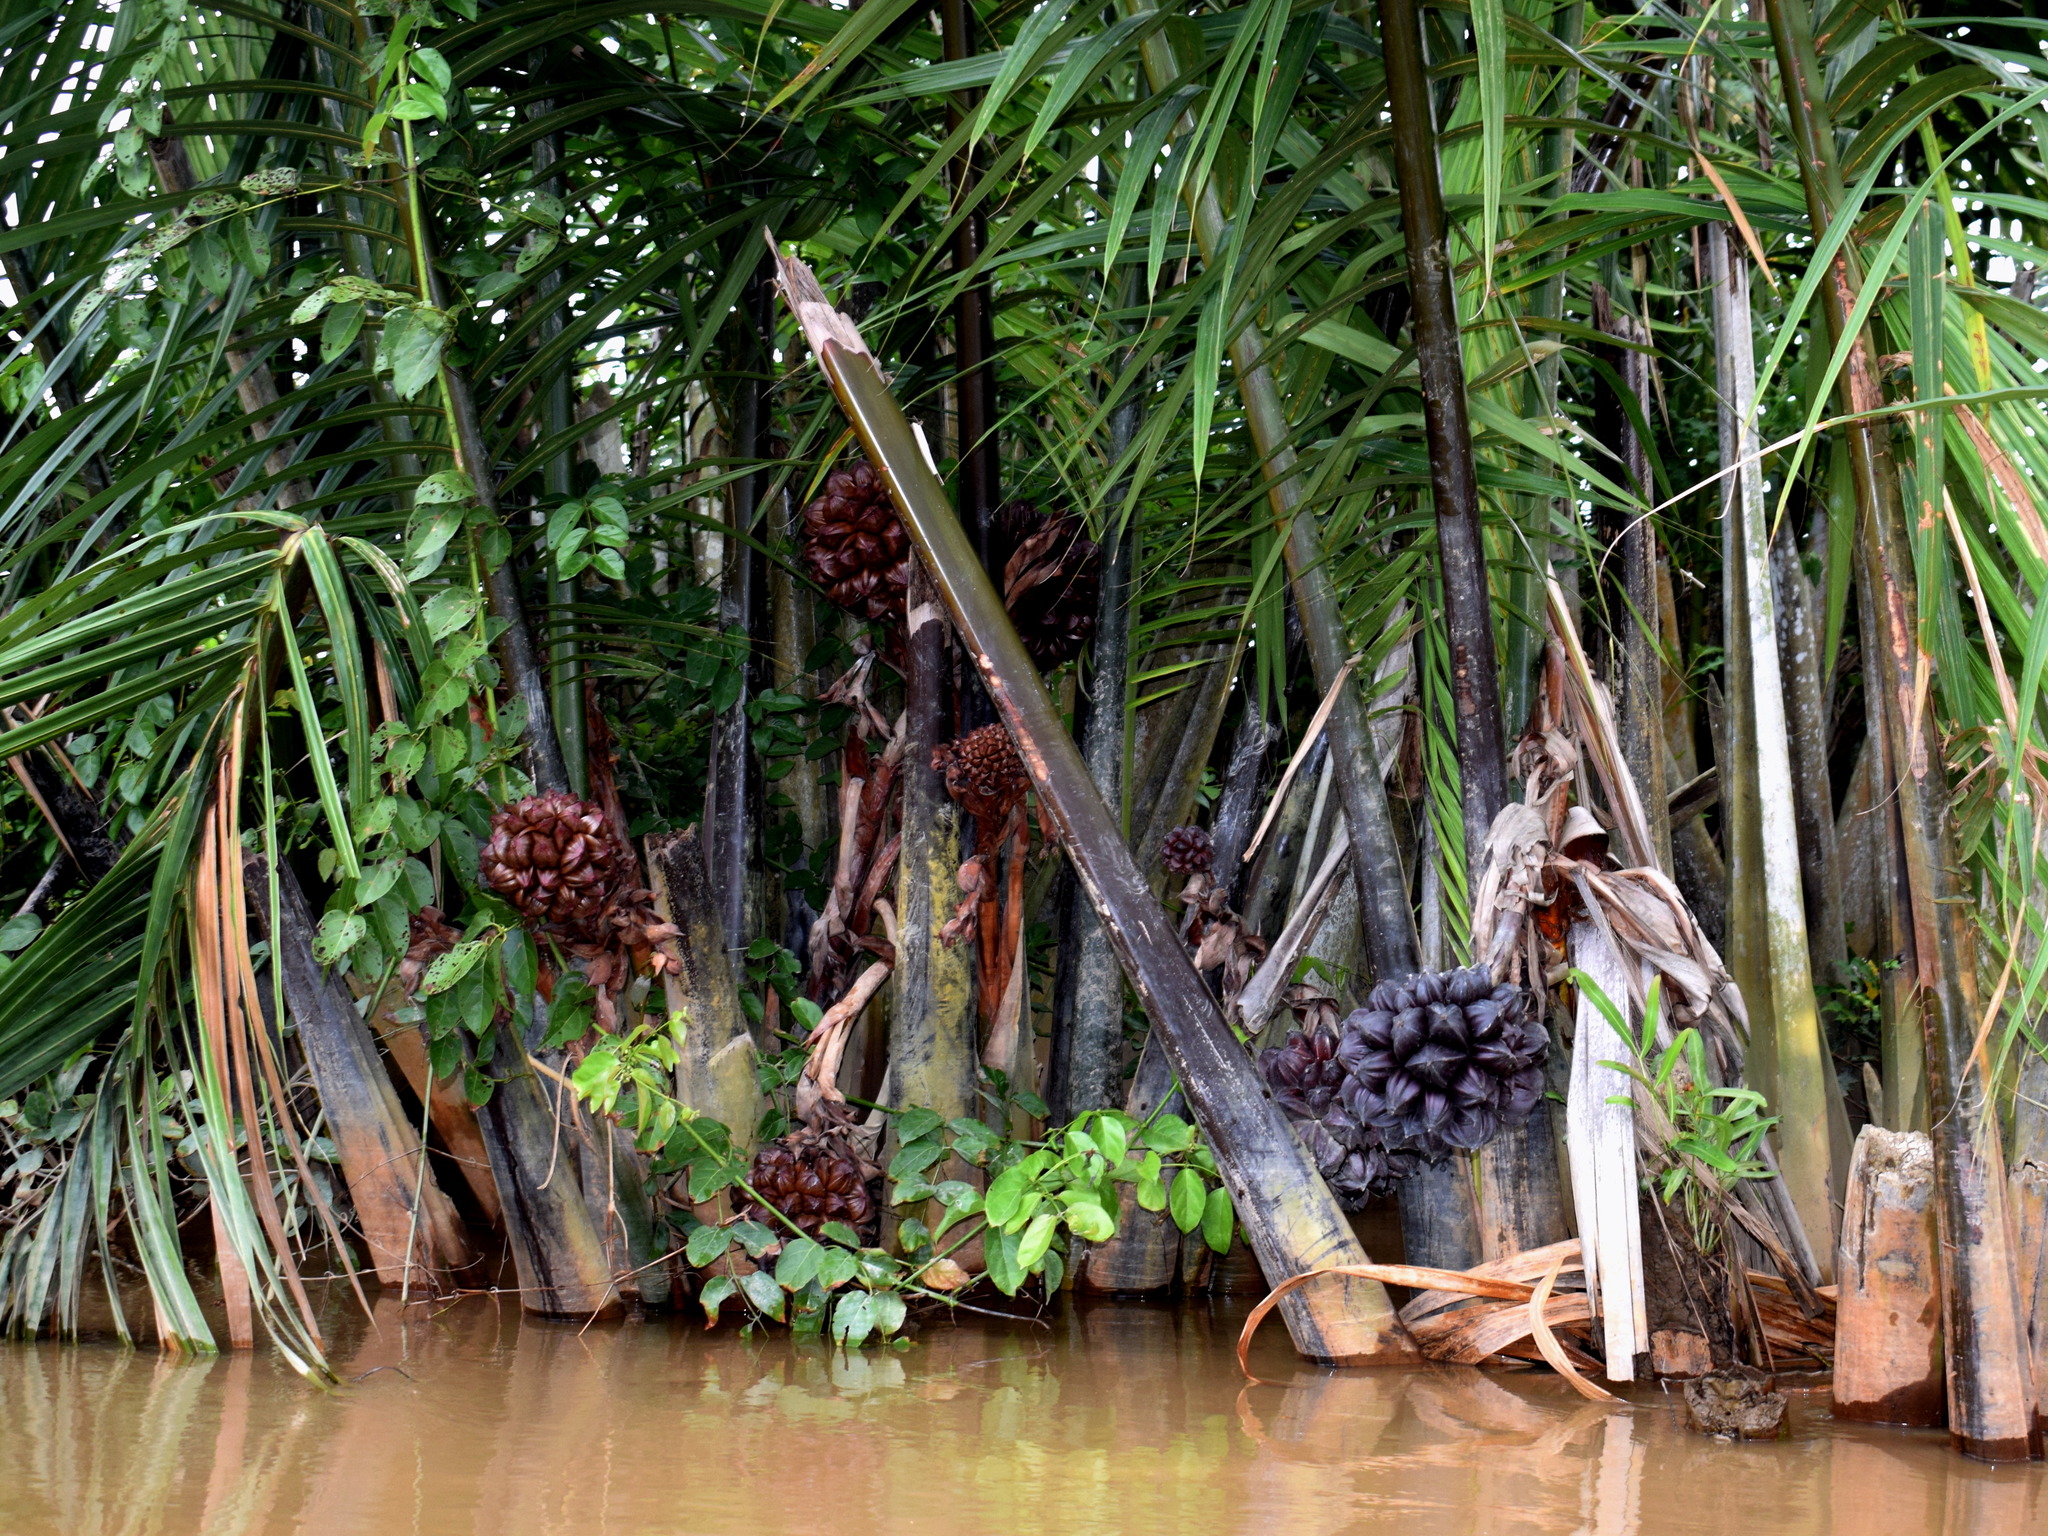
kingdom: Plantae
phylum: Tracheophyta
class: Liliopsida
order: Arecales
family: Arecaceae
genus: Nypa
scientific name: Nypa fruticans
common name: Mangrove palm
